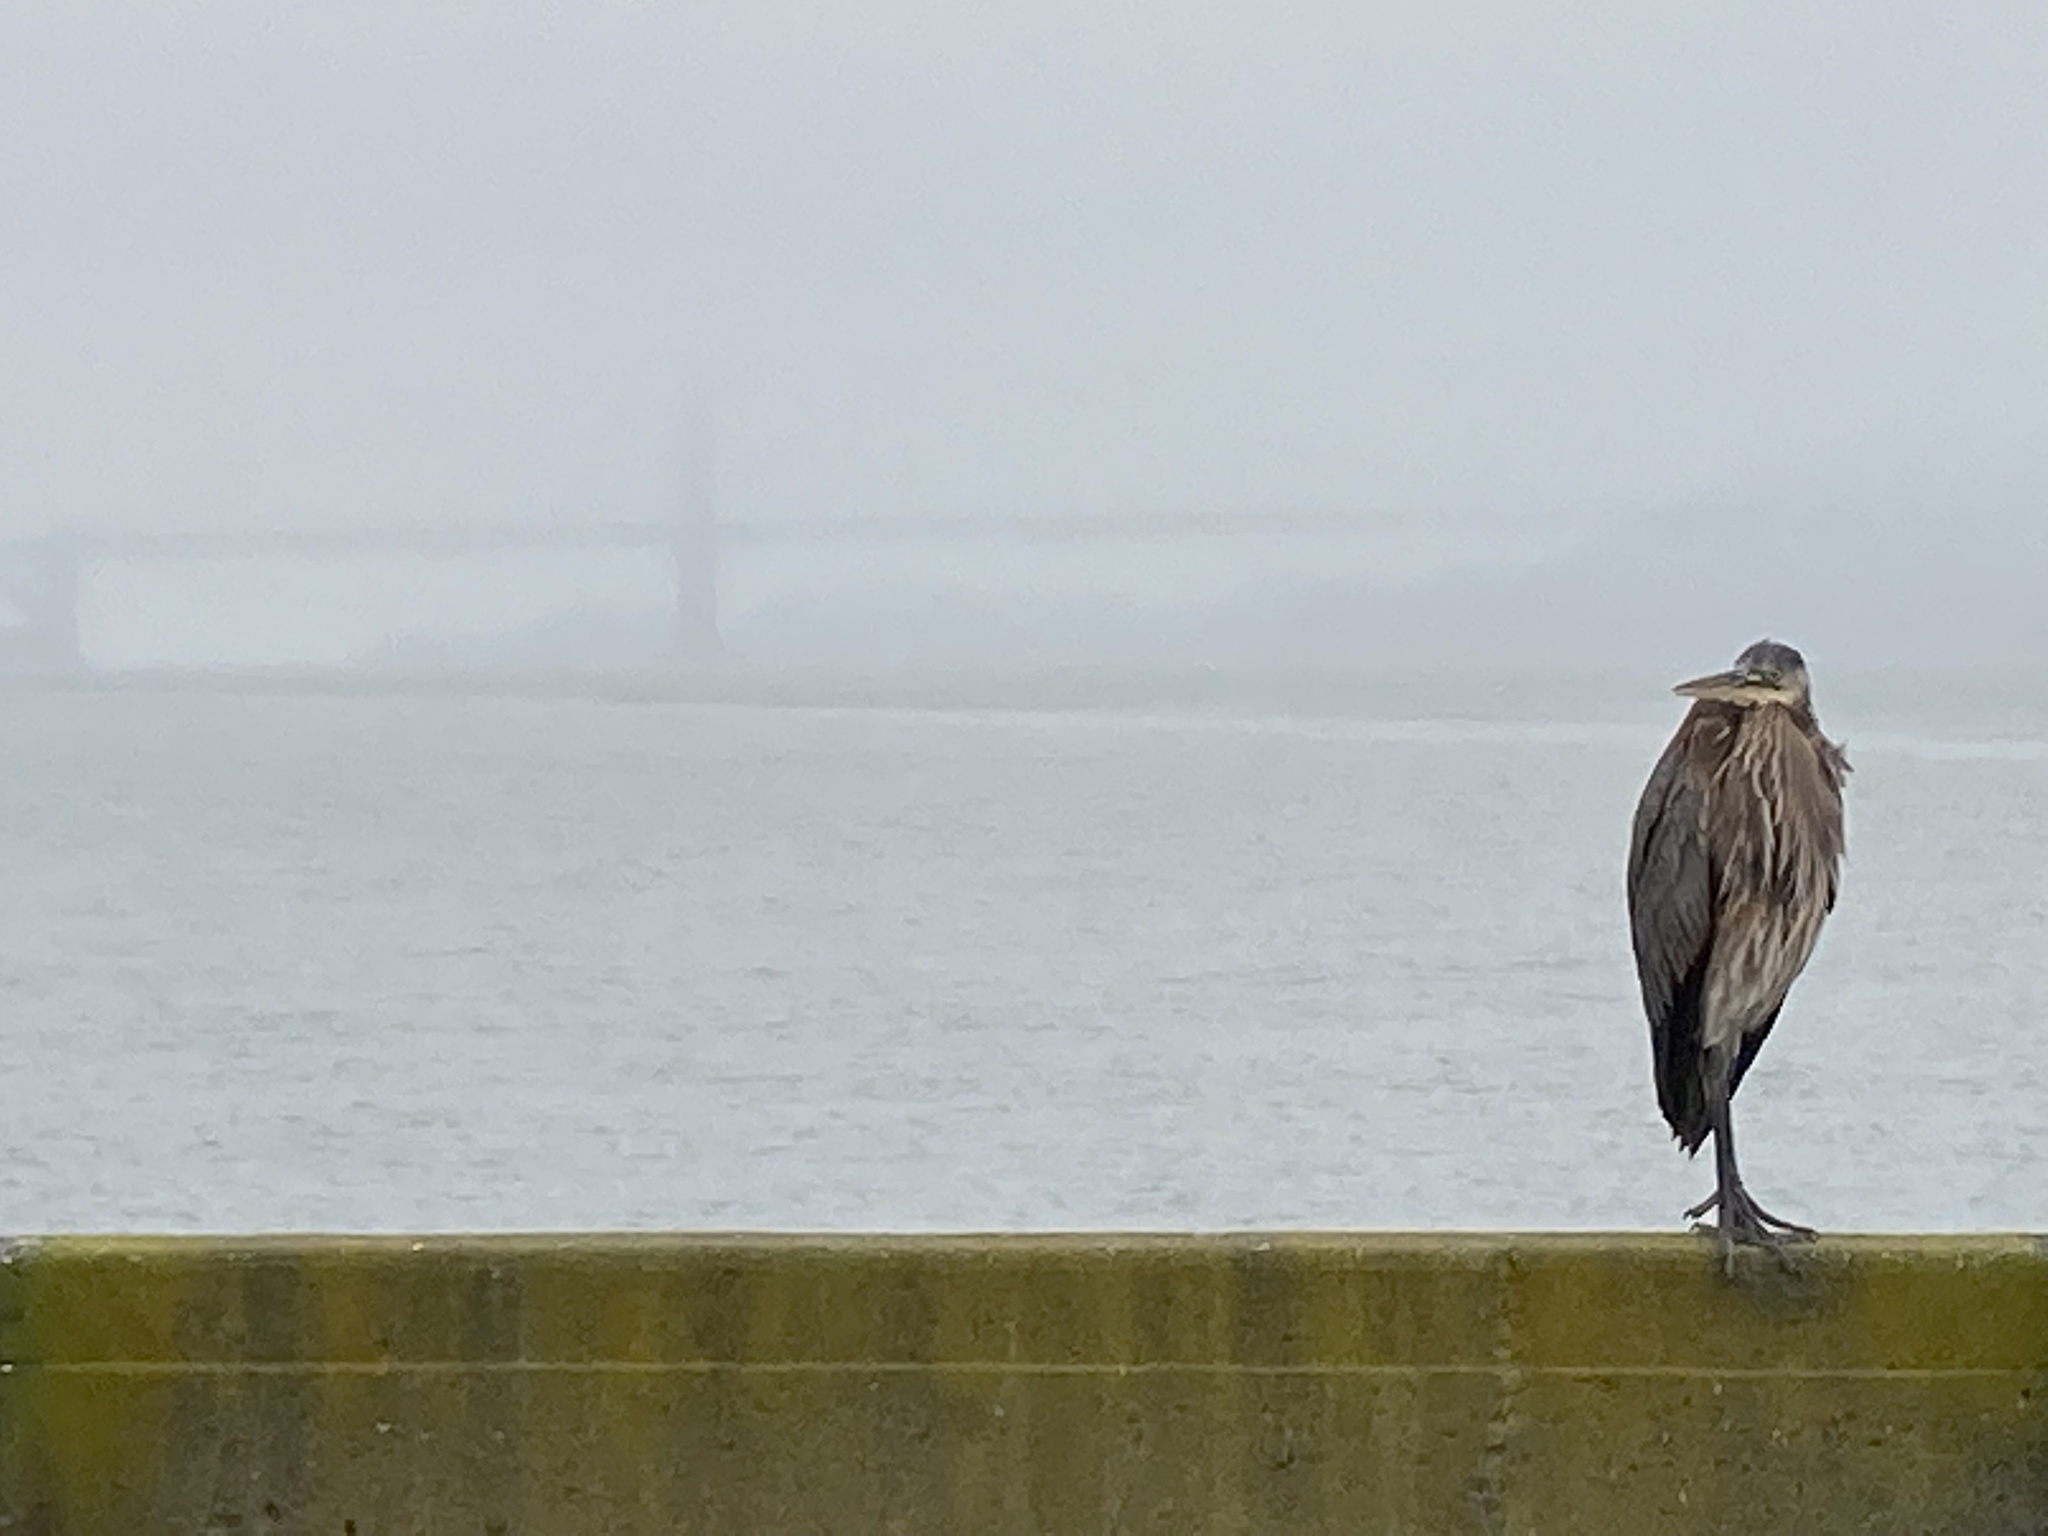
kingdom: Animalia
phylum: Chordata
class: Aves
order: Pelecaniformes
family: Ardeidae
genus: Ardea
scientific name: Ardea herodias
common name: Great blue heron
